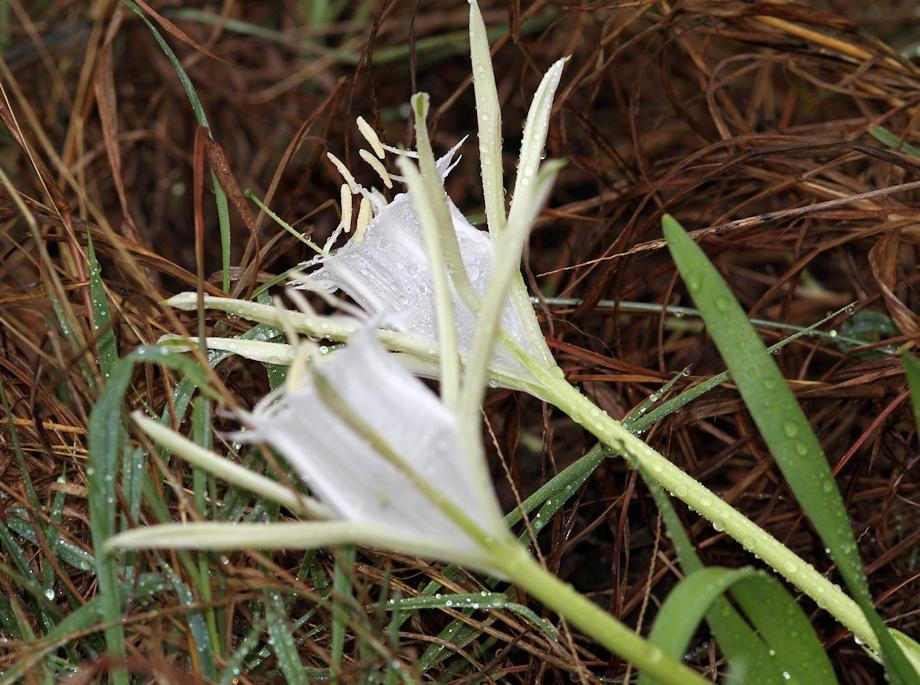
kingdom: Plantae
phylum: Tracheophyta
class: Liliopsida
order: Asparagales
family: Amaryllidaceae
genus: Pancratium
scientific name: Pancratium tenuifolium
